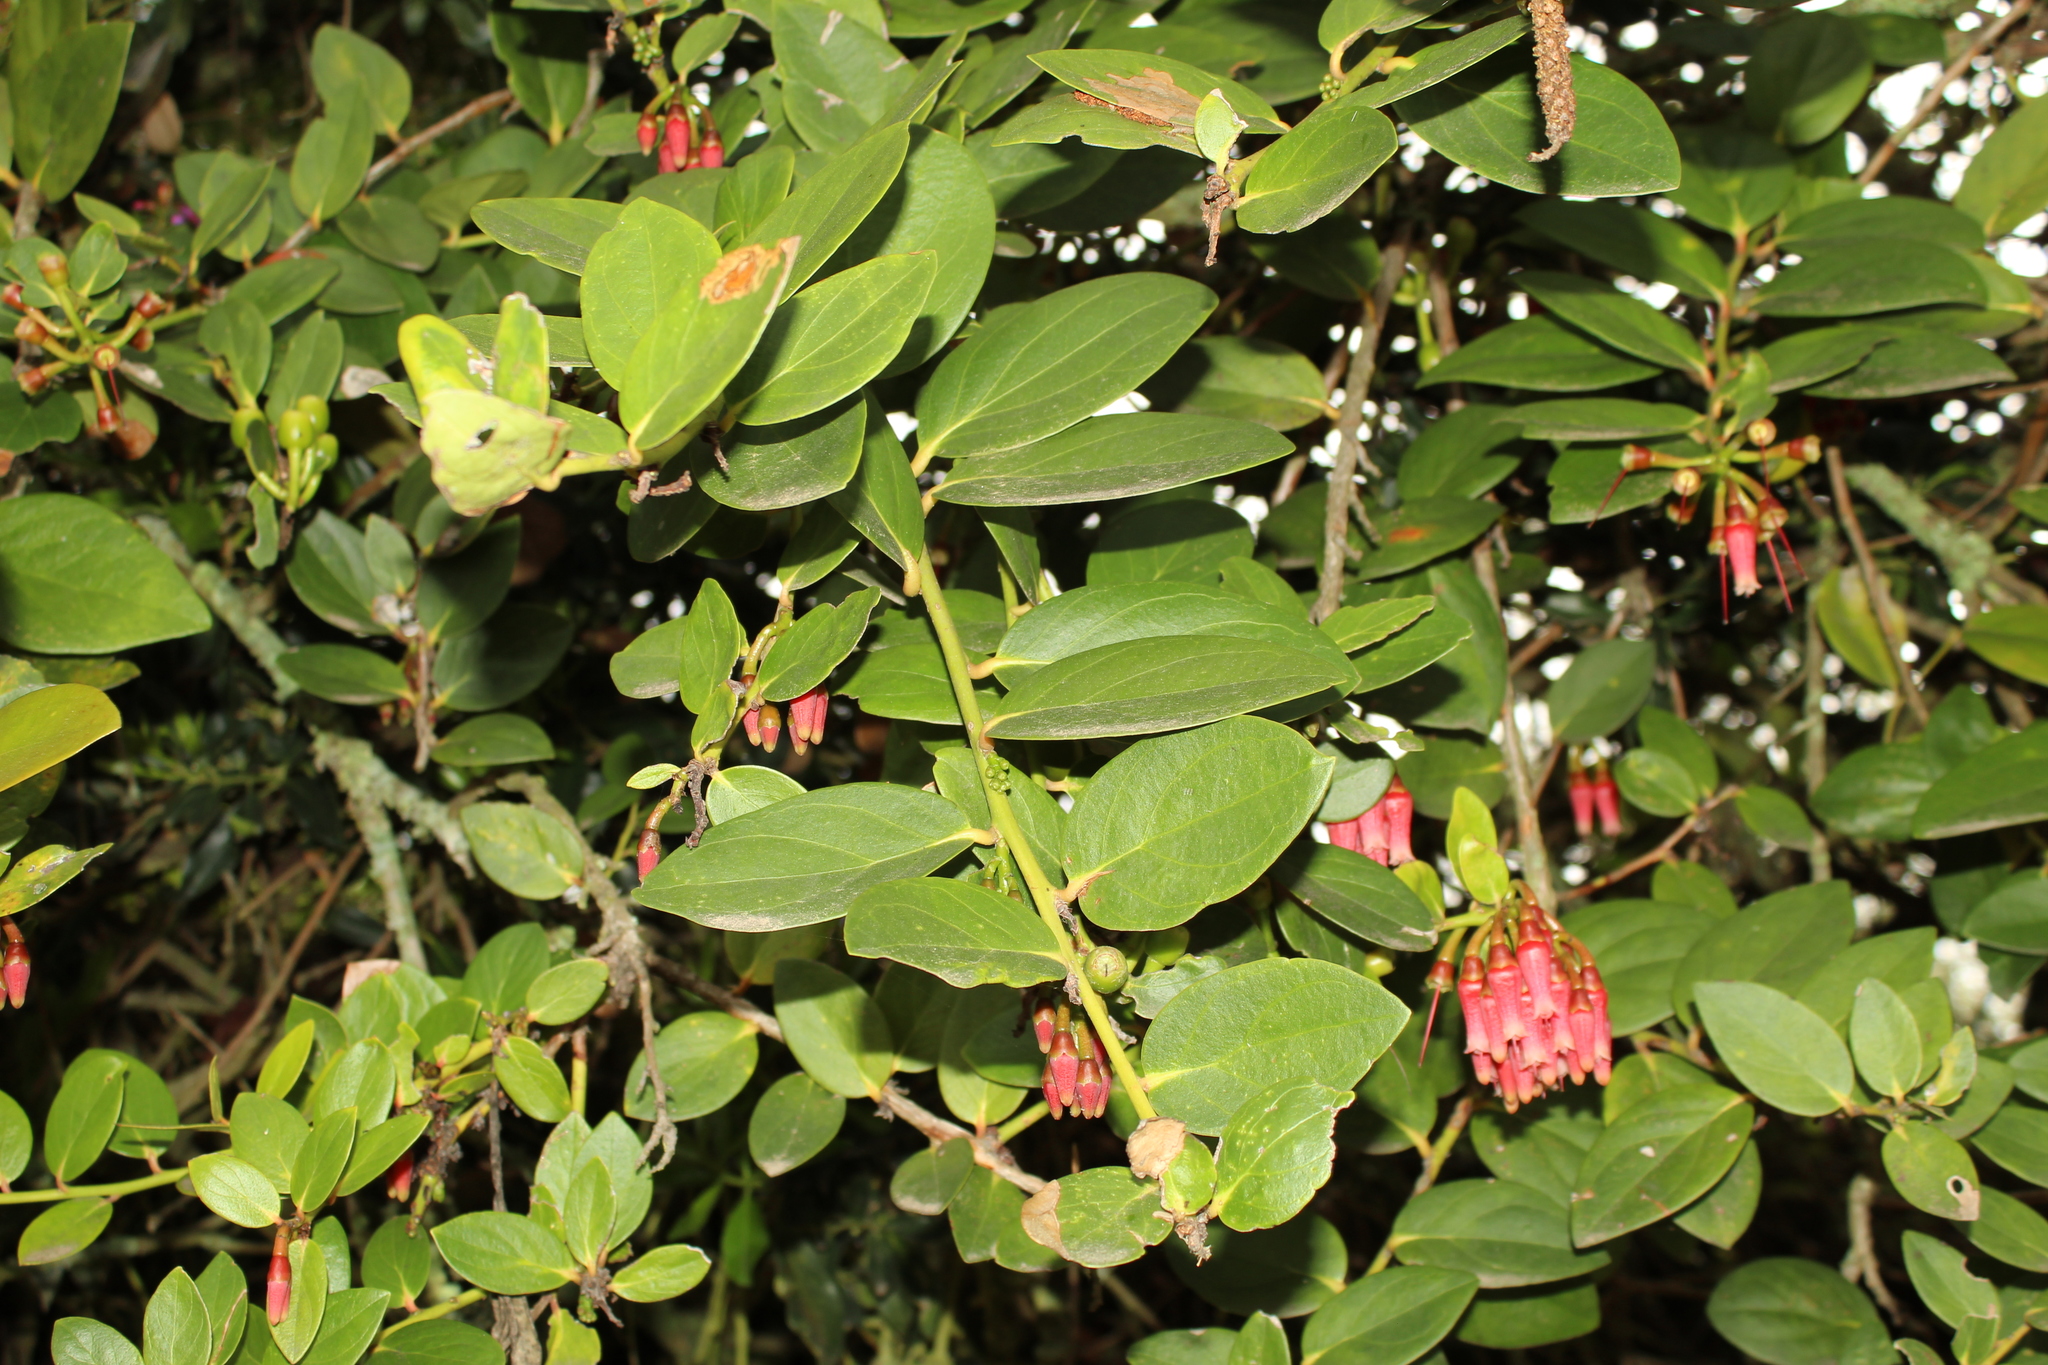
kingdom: Plantae
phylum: Tracheophyta
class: Magnoliopsida
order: Ericales
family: Ericaceae
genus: Macleania
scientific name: Macleania rupestris
